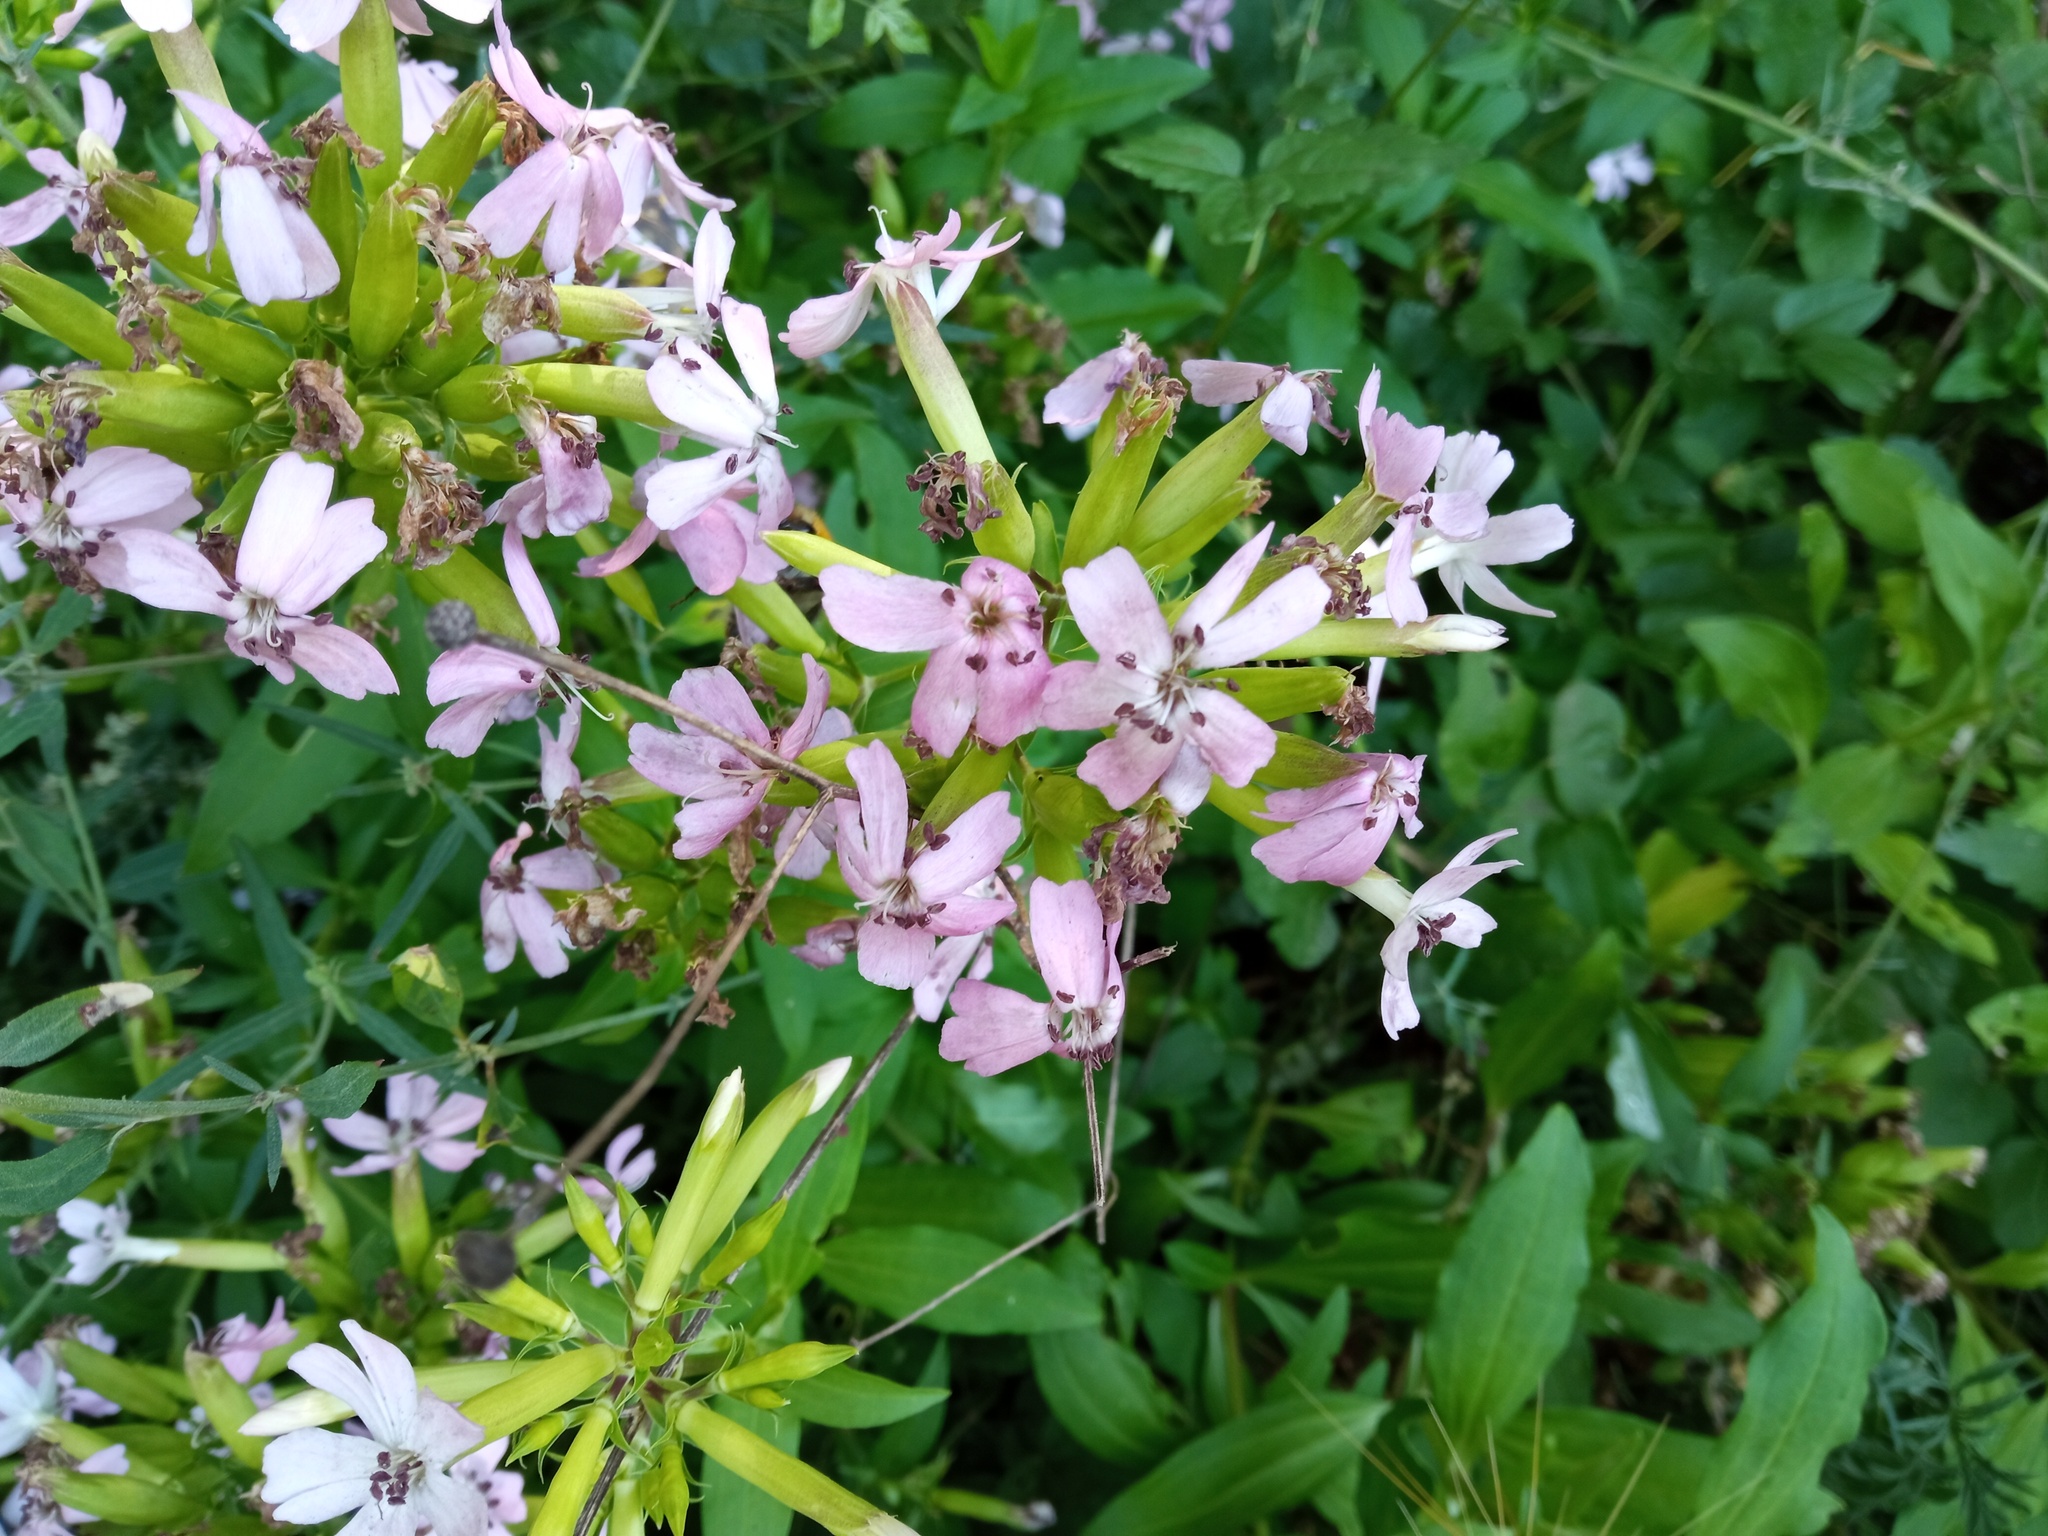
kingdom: Plantae
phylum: Tracheophyta
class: Magnoliopsida
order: Caryophyllales
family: Caryophyllaceae
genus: Saponaria
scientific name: Saponaria officinalis
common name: Soapwort
